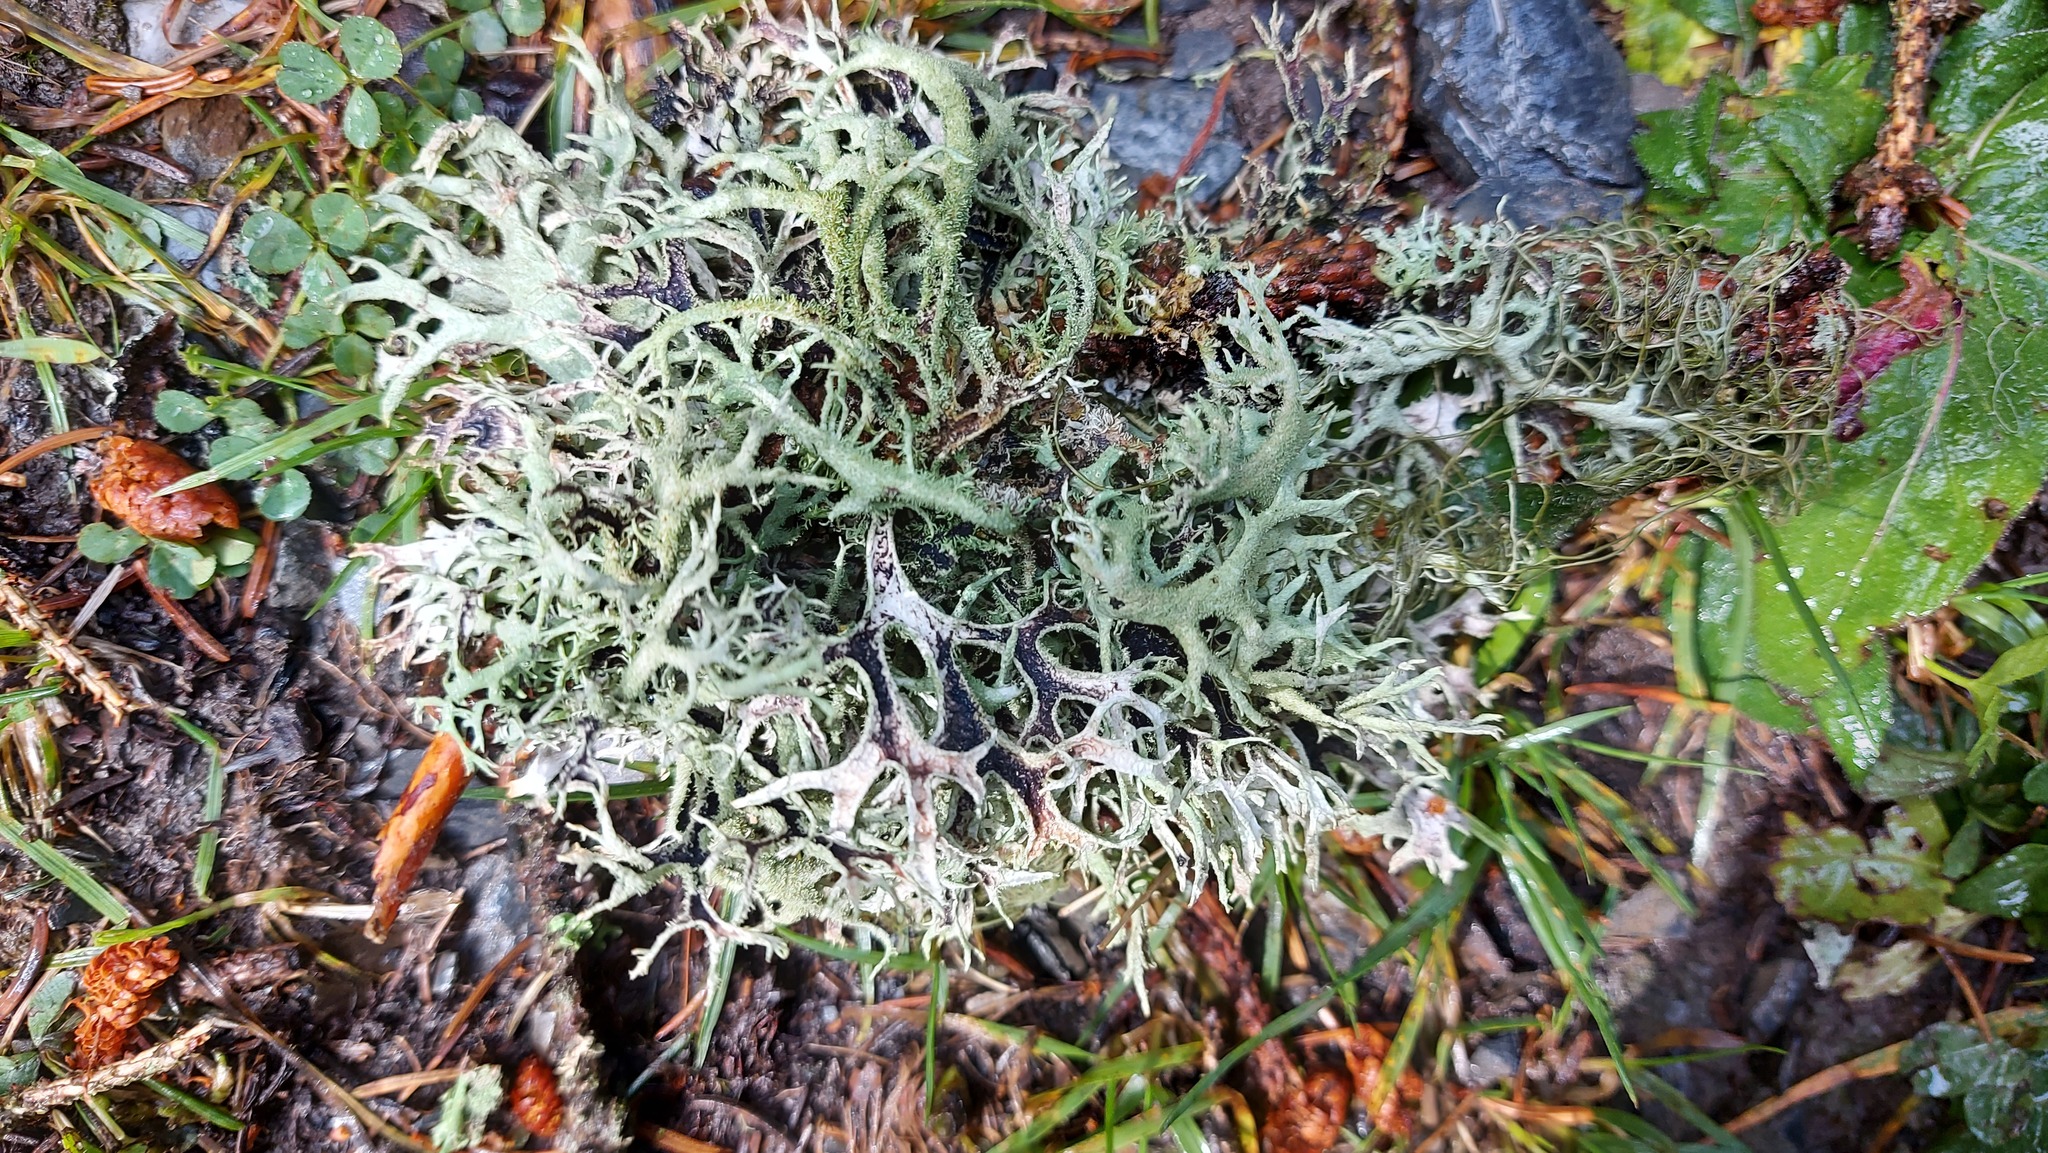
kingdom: Fungi
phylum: Ascomycota
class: Lecanoromycetes
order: Lecanorales
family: Parmeliaceae
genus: Pseudevernia
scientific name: Pseudevernia furfuracea
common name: Tree moss
